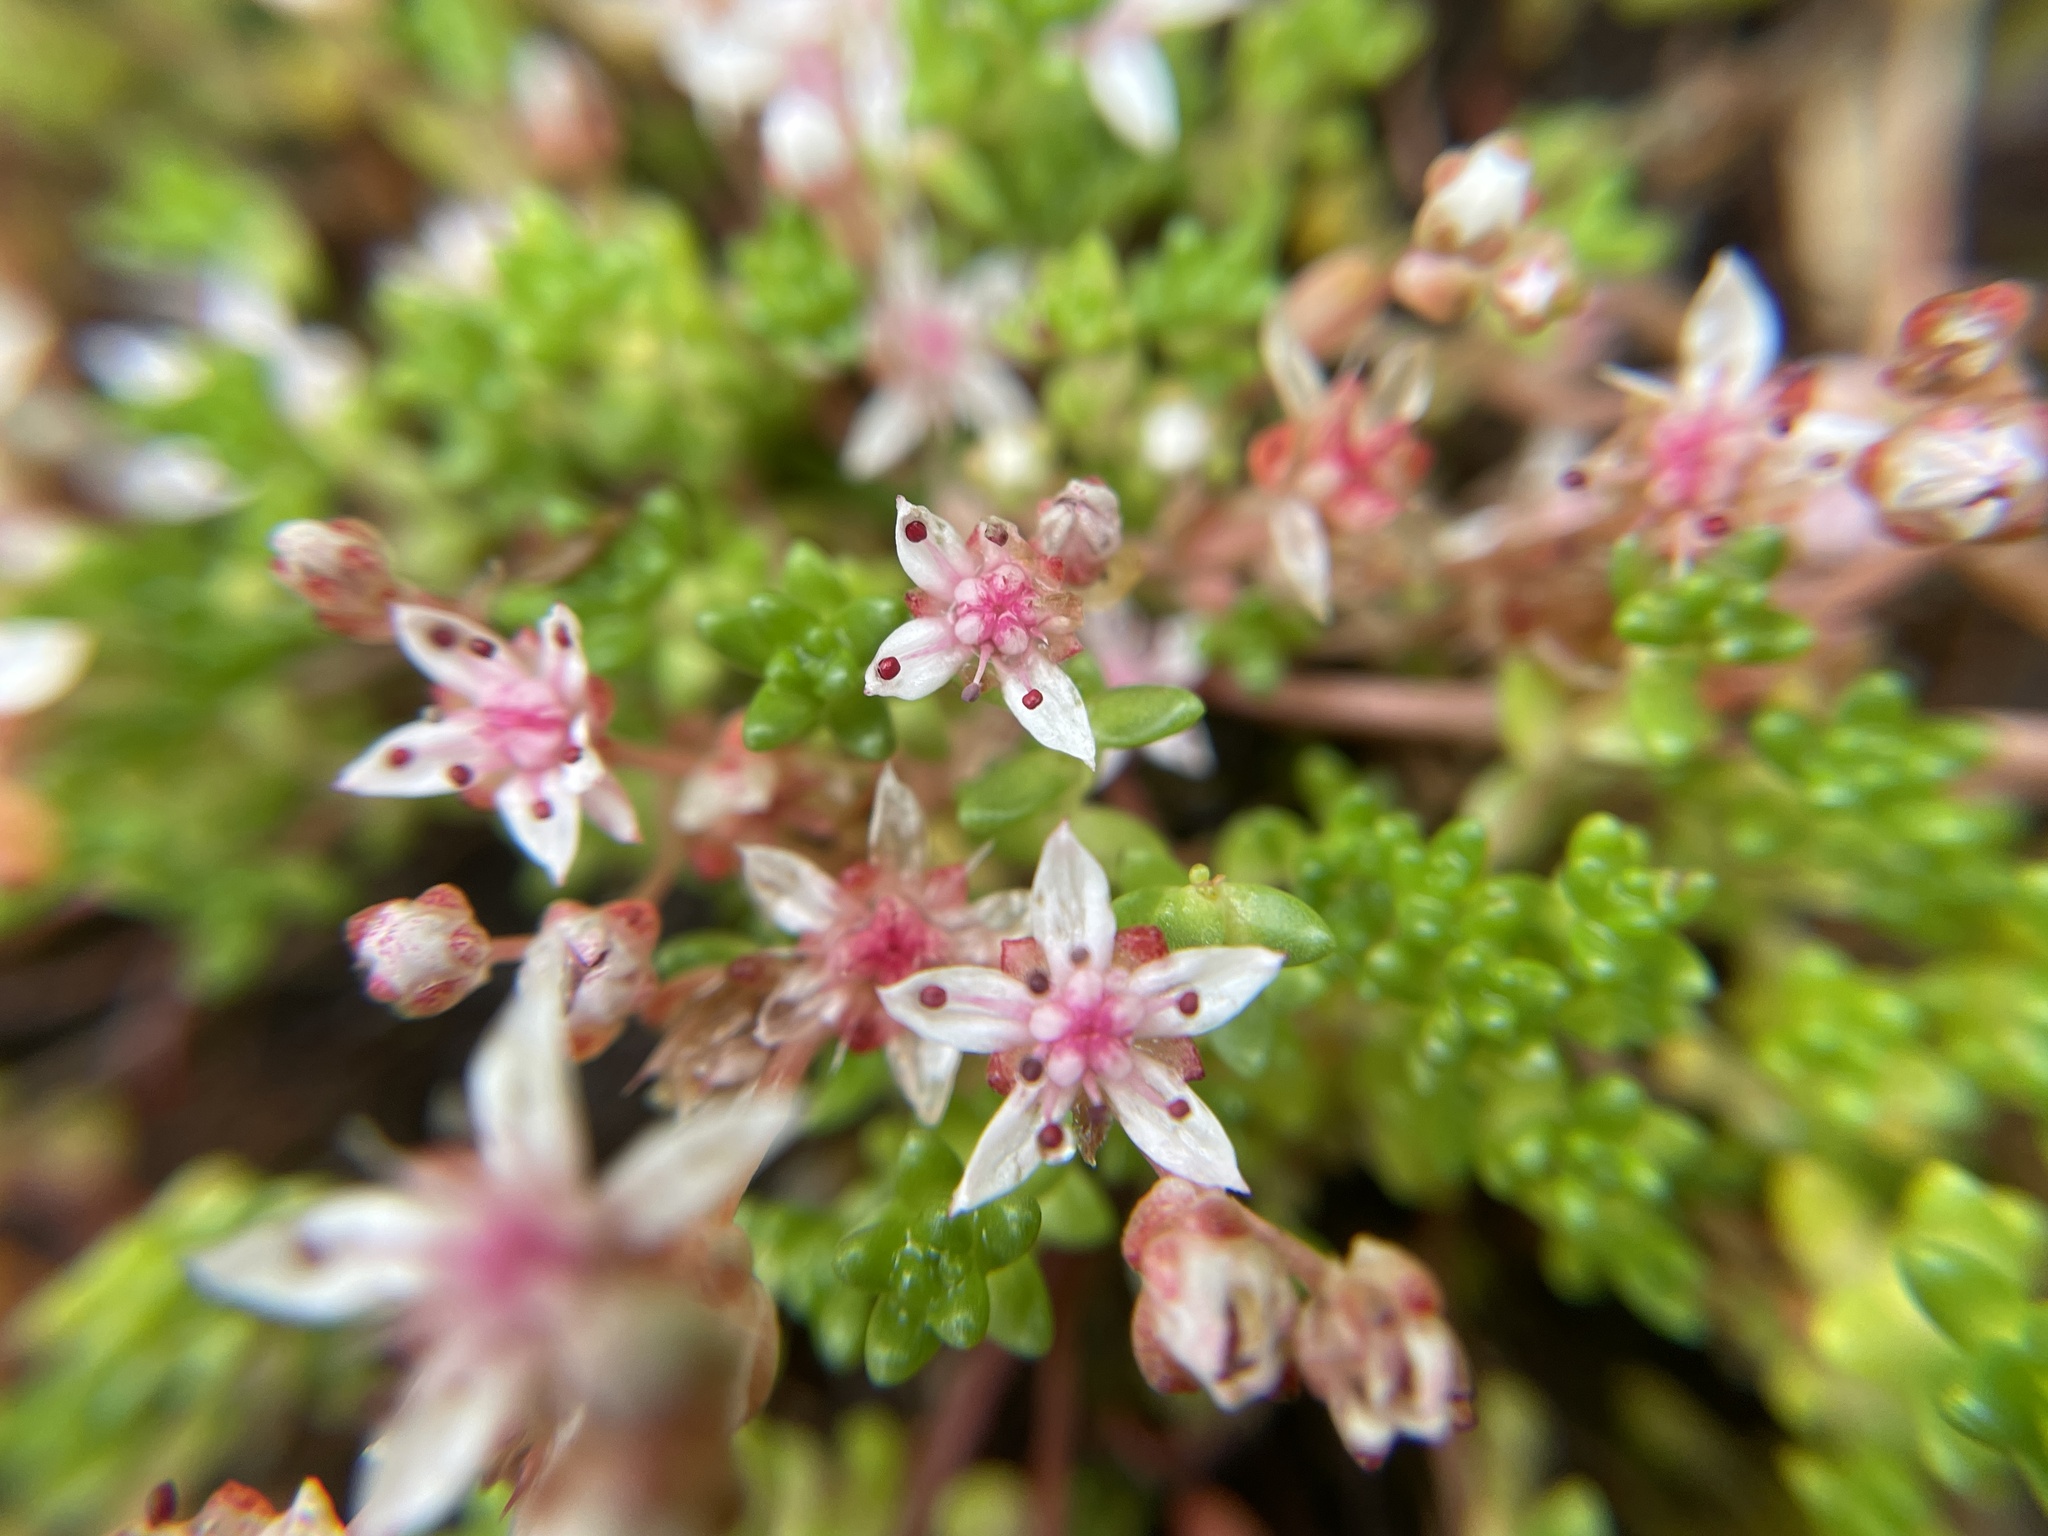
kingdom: Plantae
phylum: Tracheophyta
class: Magnoliopsida
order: Saxifragales
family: Crassulaceae
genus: Sedum
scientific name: Sedum anglicum
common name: English stonecrop
